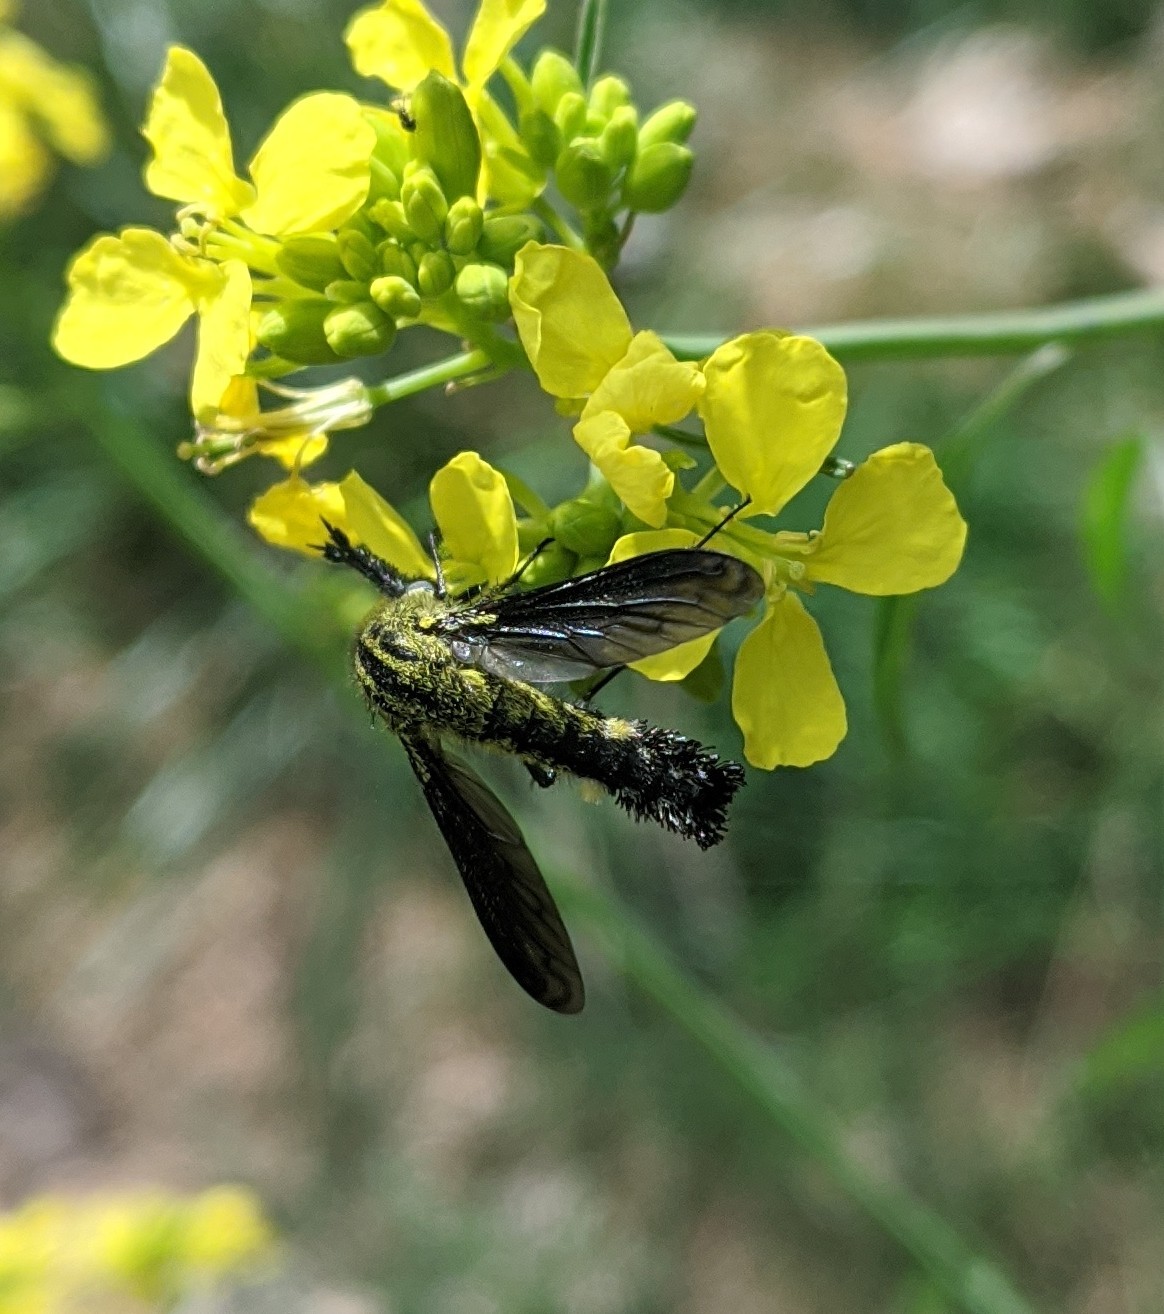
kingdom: Animalia
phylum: Arthropoda
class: Insecta
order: Diptera
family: Bombyliidae
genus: Lepidophora
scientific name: Lepidophora lutea
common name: Hunchback bee fly
